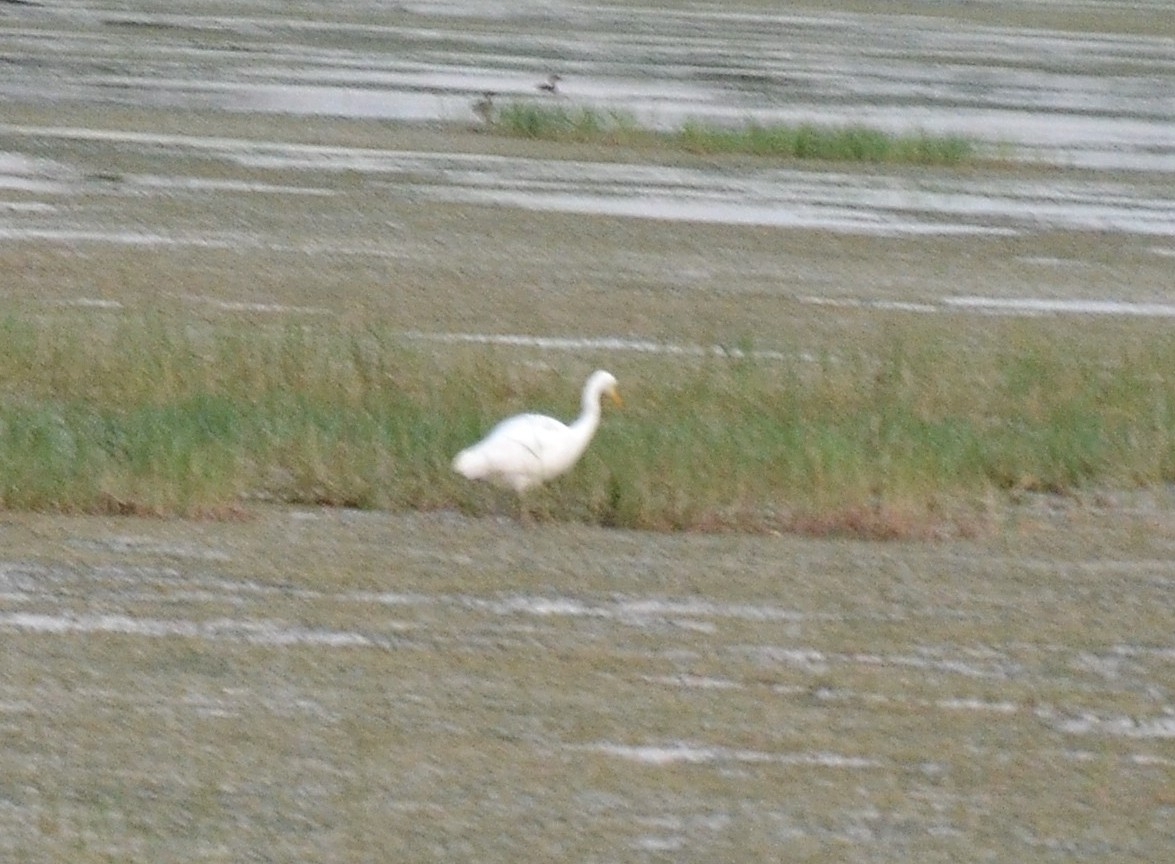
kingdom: Animalia
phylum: Chordata
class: Aves
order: Pelecaniformes
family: Ardeidae
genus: Egretta
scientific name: Egretta intermedia
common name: Intermediate egret
